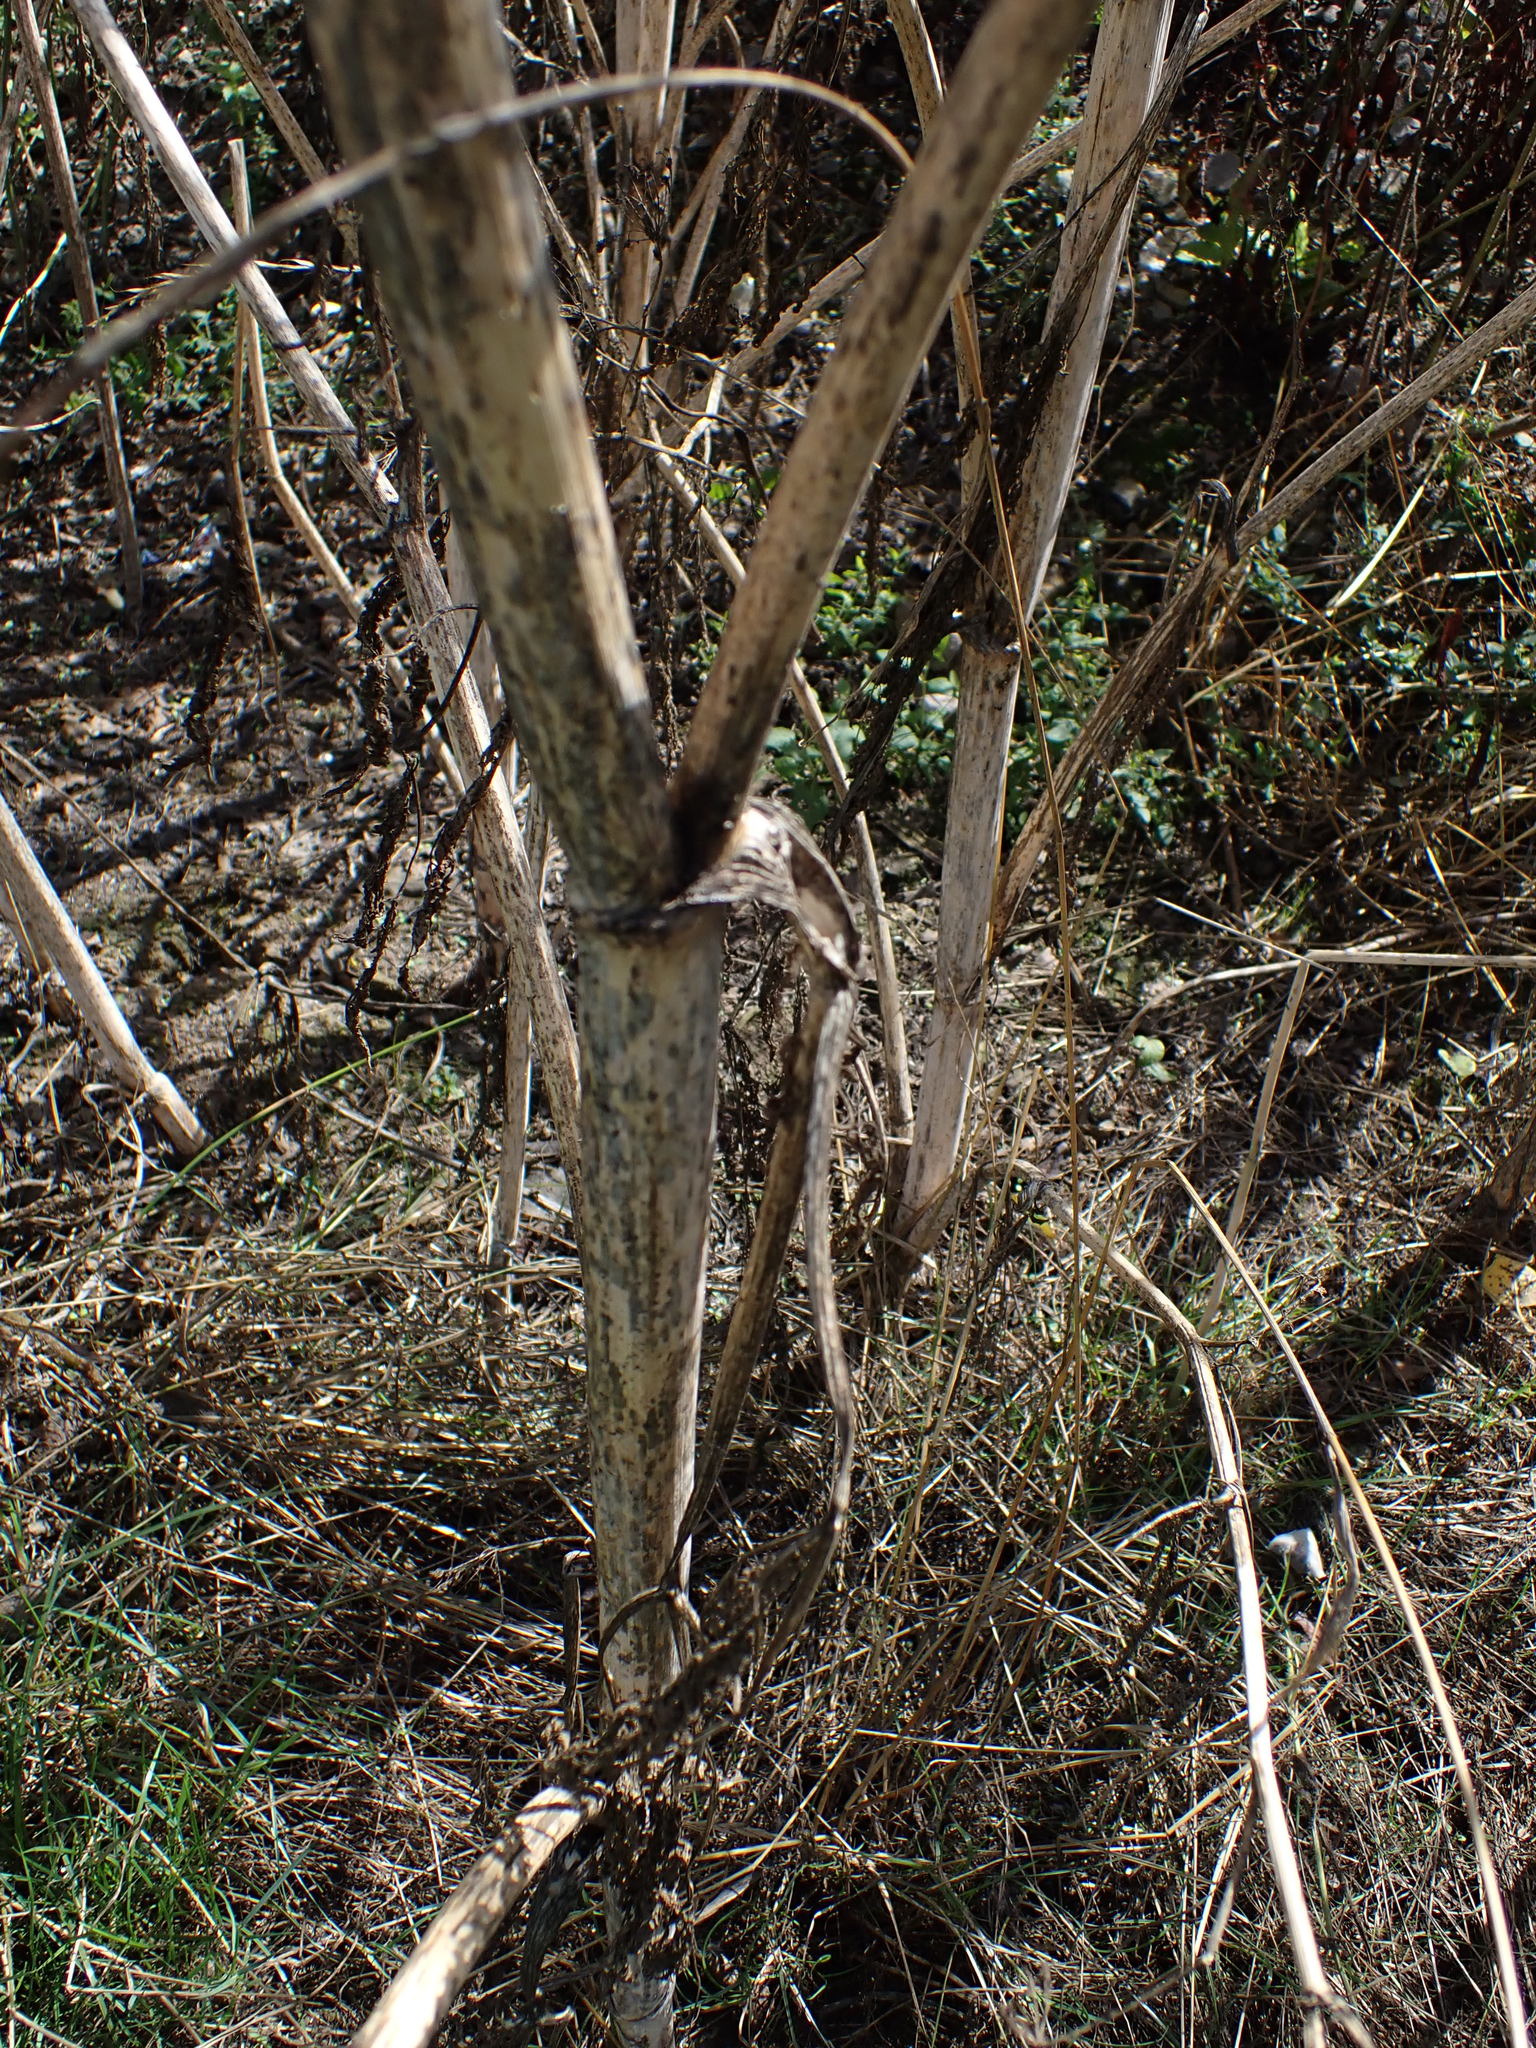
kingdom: Plantae
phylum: Tracheophyta
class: Magnoliopsida
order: Apiales
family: Apiaceae
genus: Conium
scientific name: Conium maculatum
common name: Hemlock
